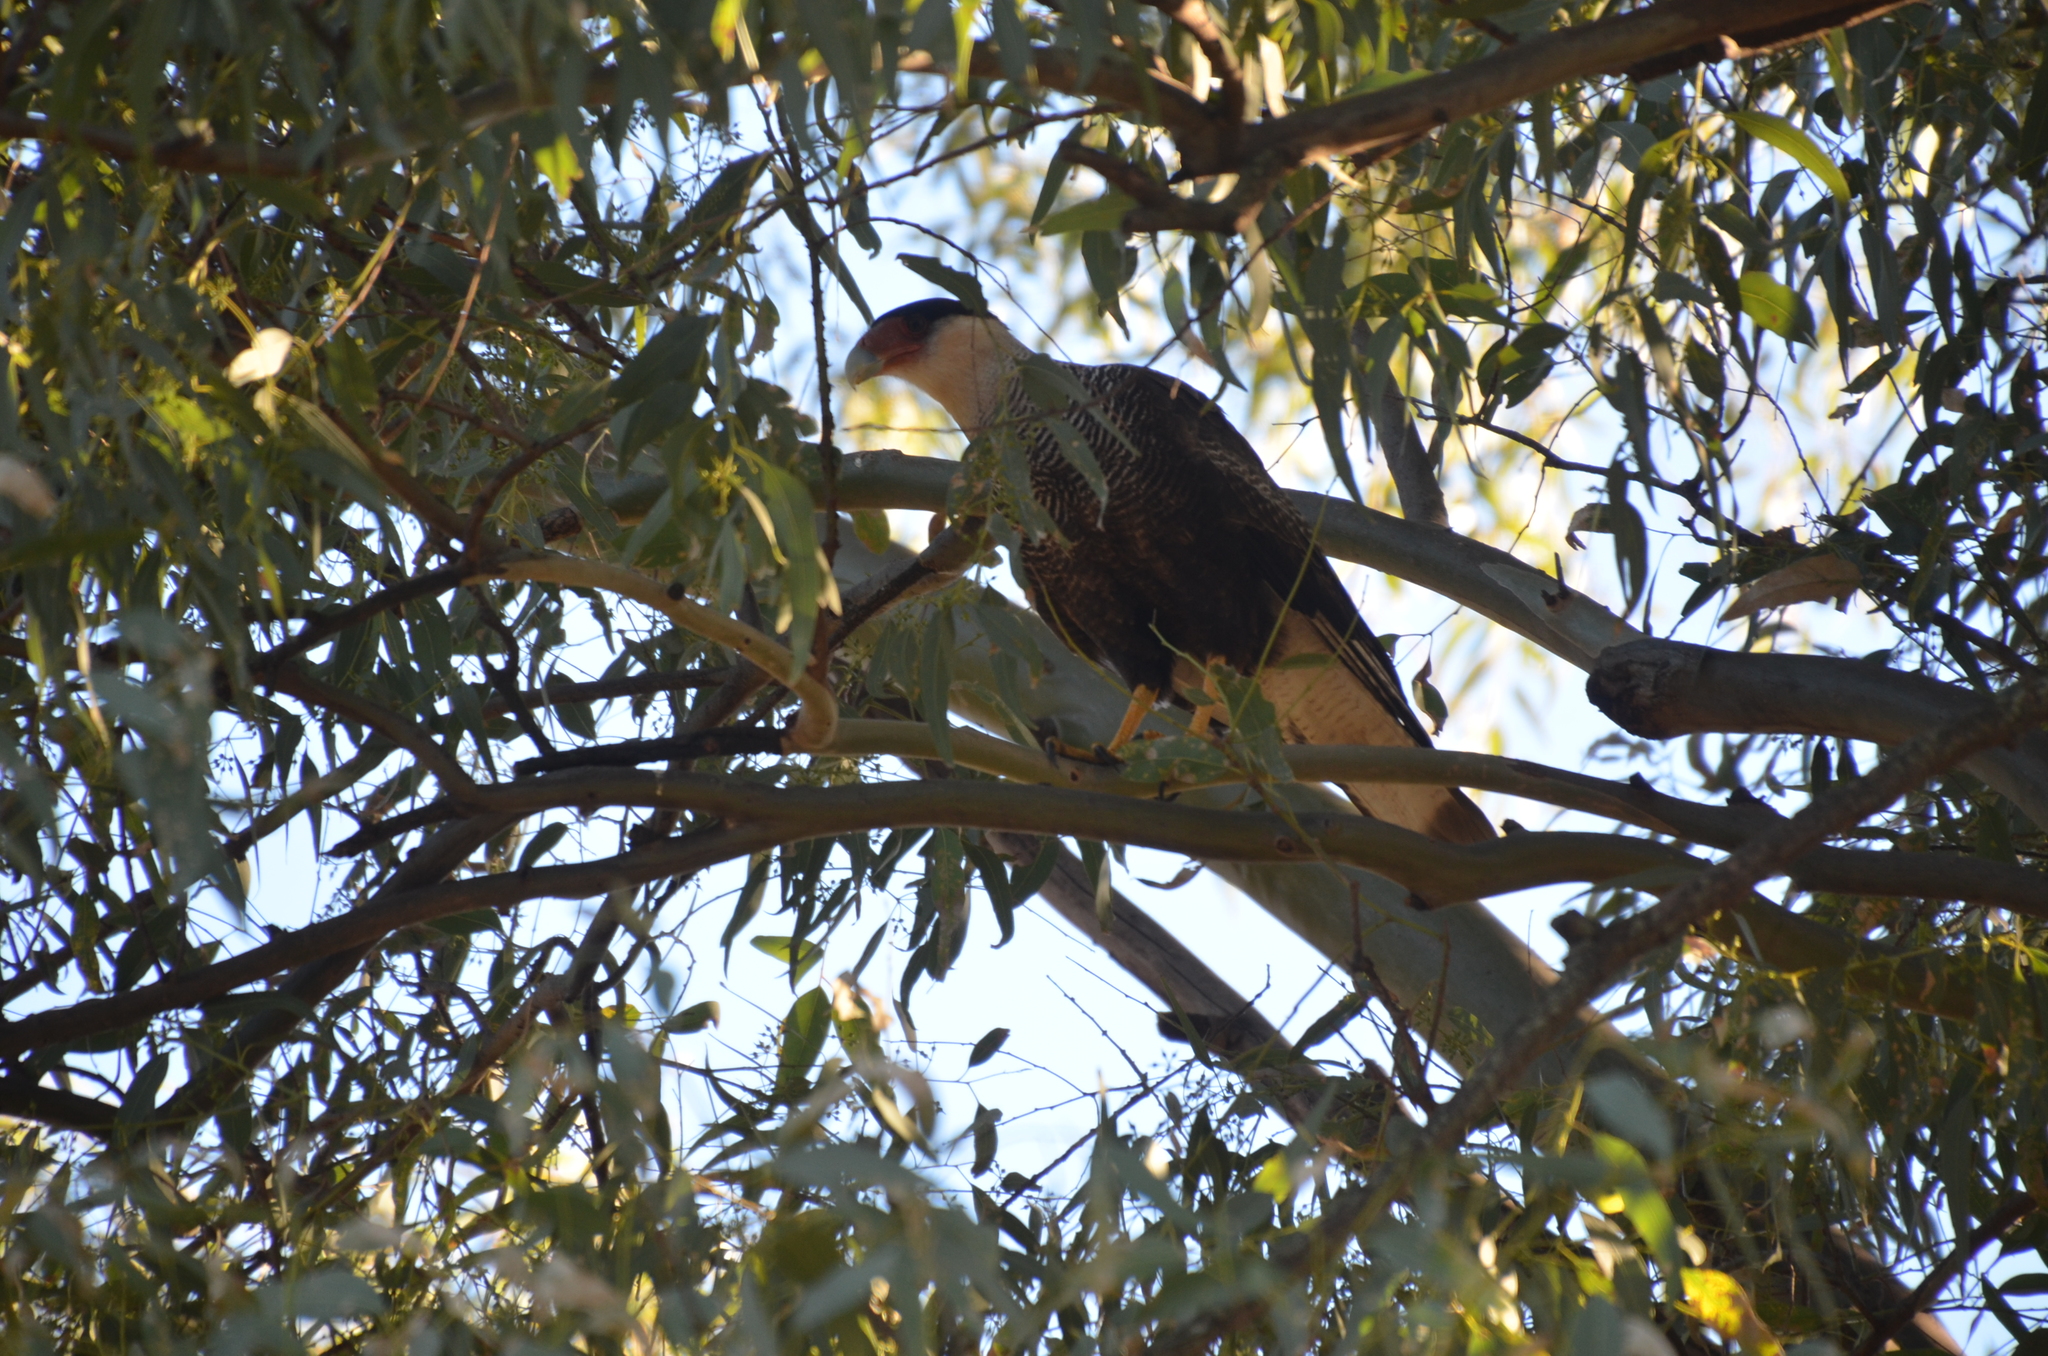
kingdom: Animalia
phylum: Chordata
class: Aves
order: Falconiformes
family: Falconidae
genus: Caracara
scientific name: Caracara plancus
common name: Southern caracara
